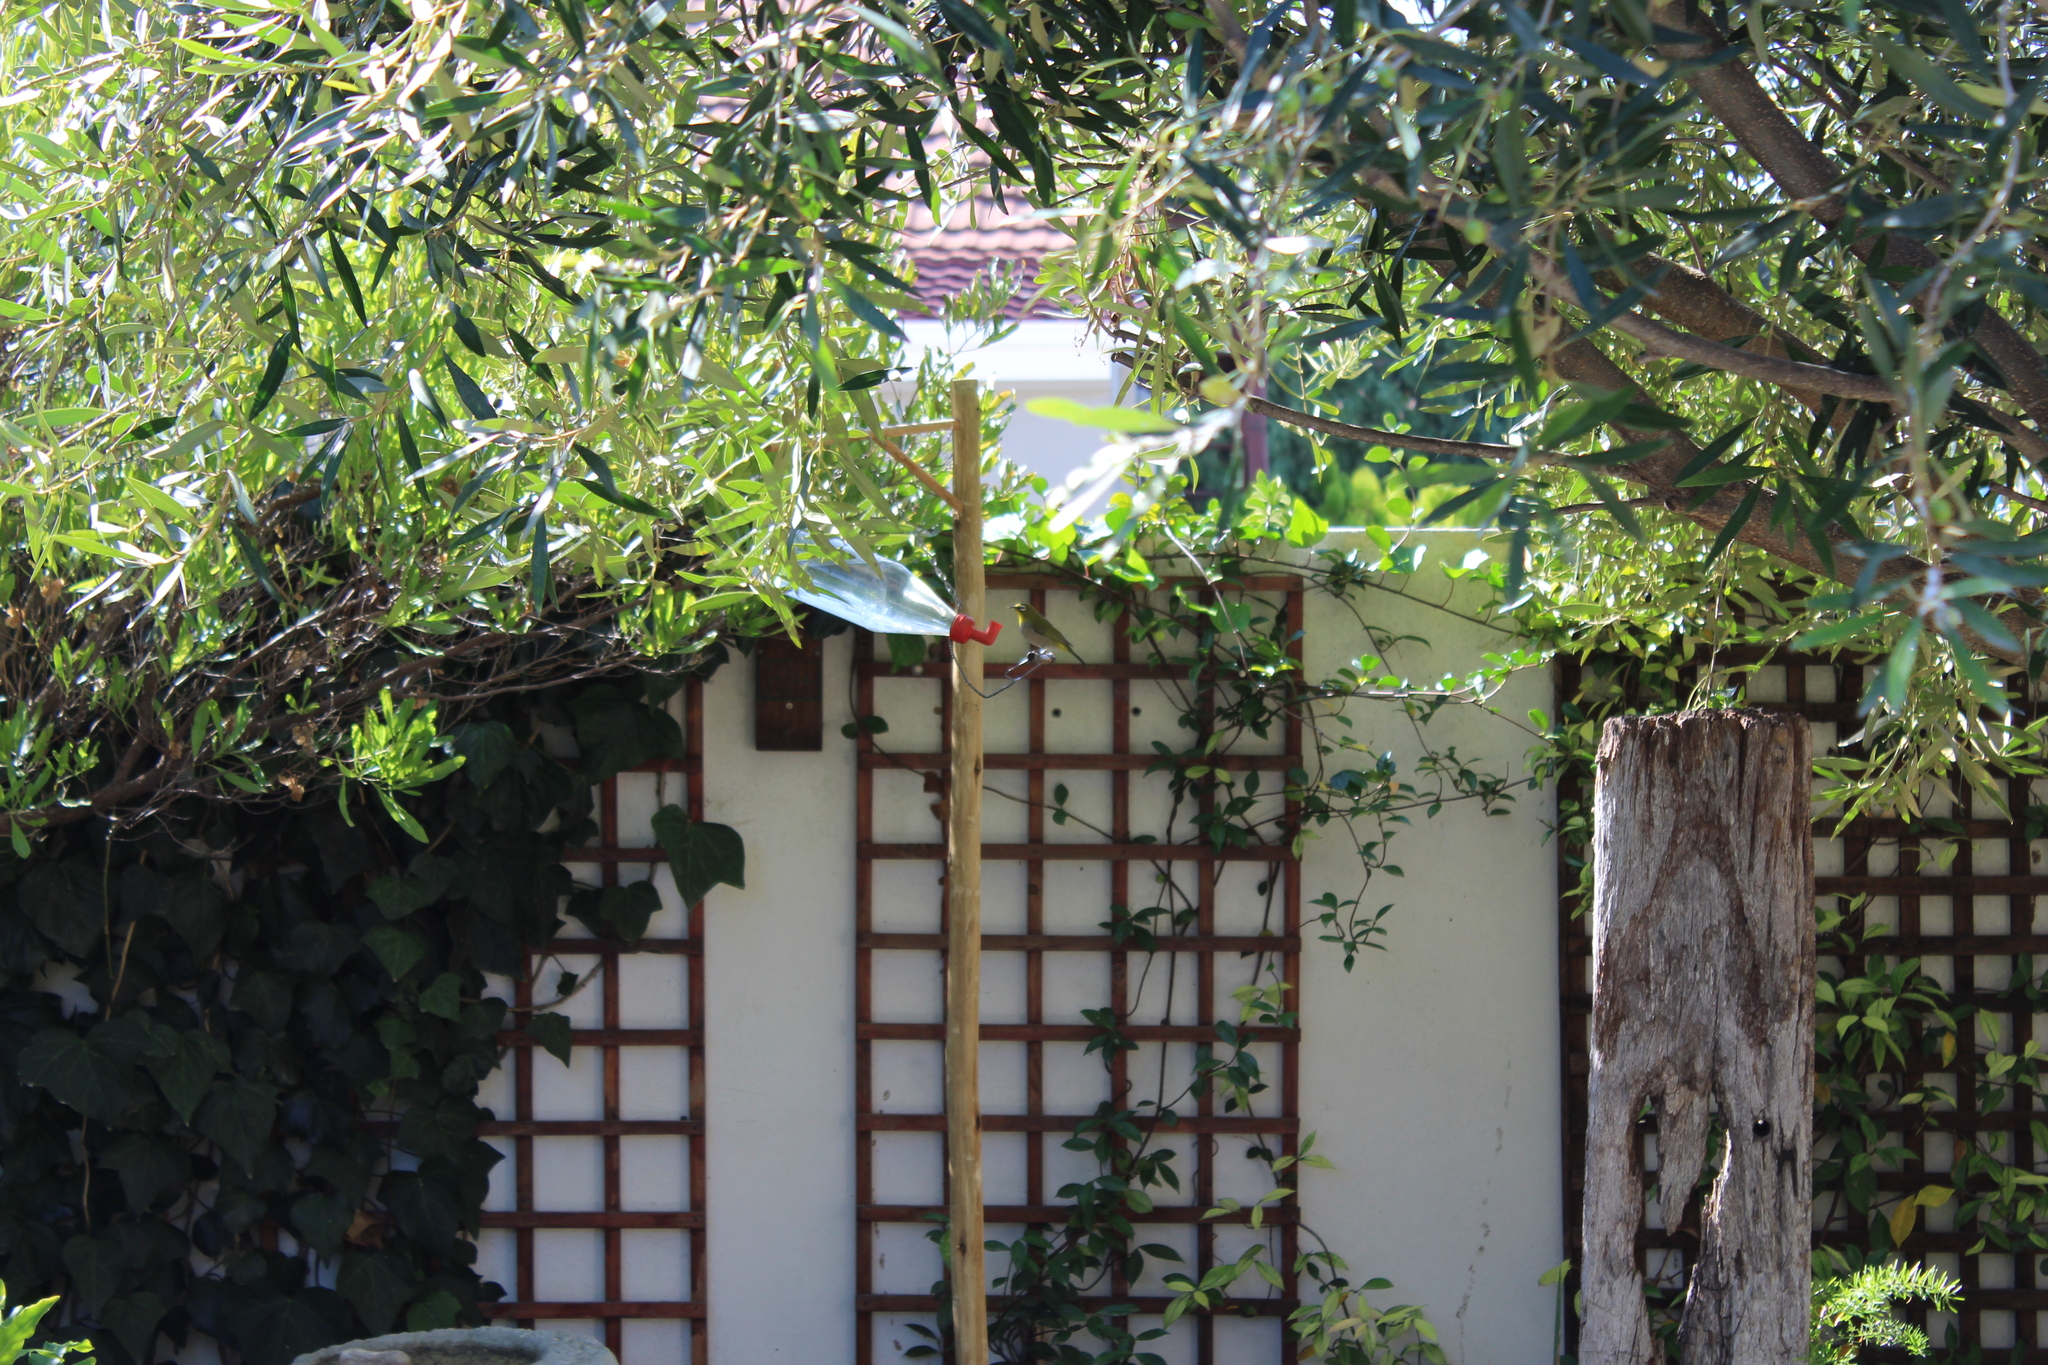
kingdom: Animalia
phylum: Chordata
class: Aves
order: Passeriformes
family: Zosteropidae
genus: Zosterops
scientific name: Zosterops virens
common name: Cape white-eye
